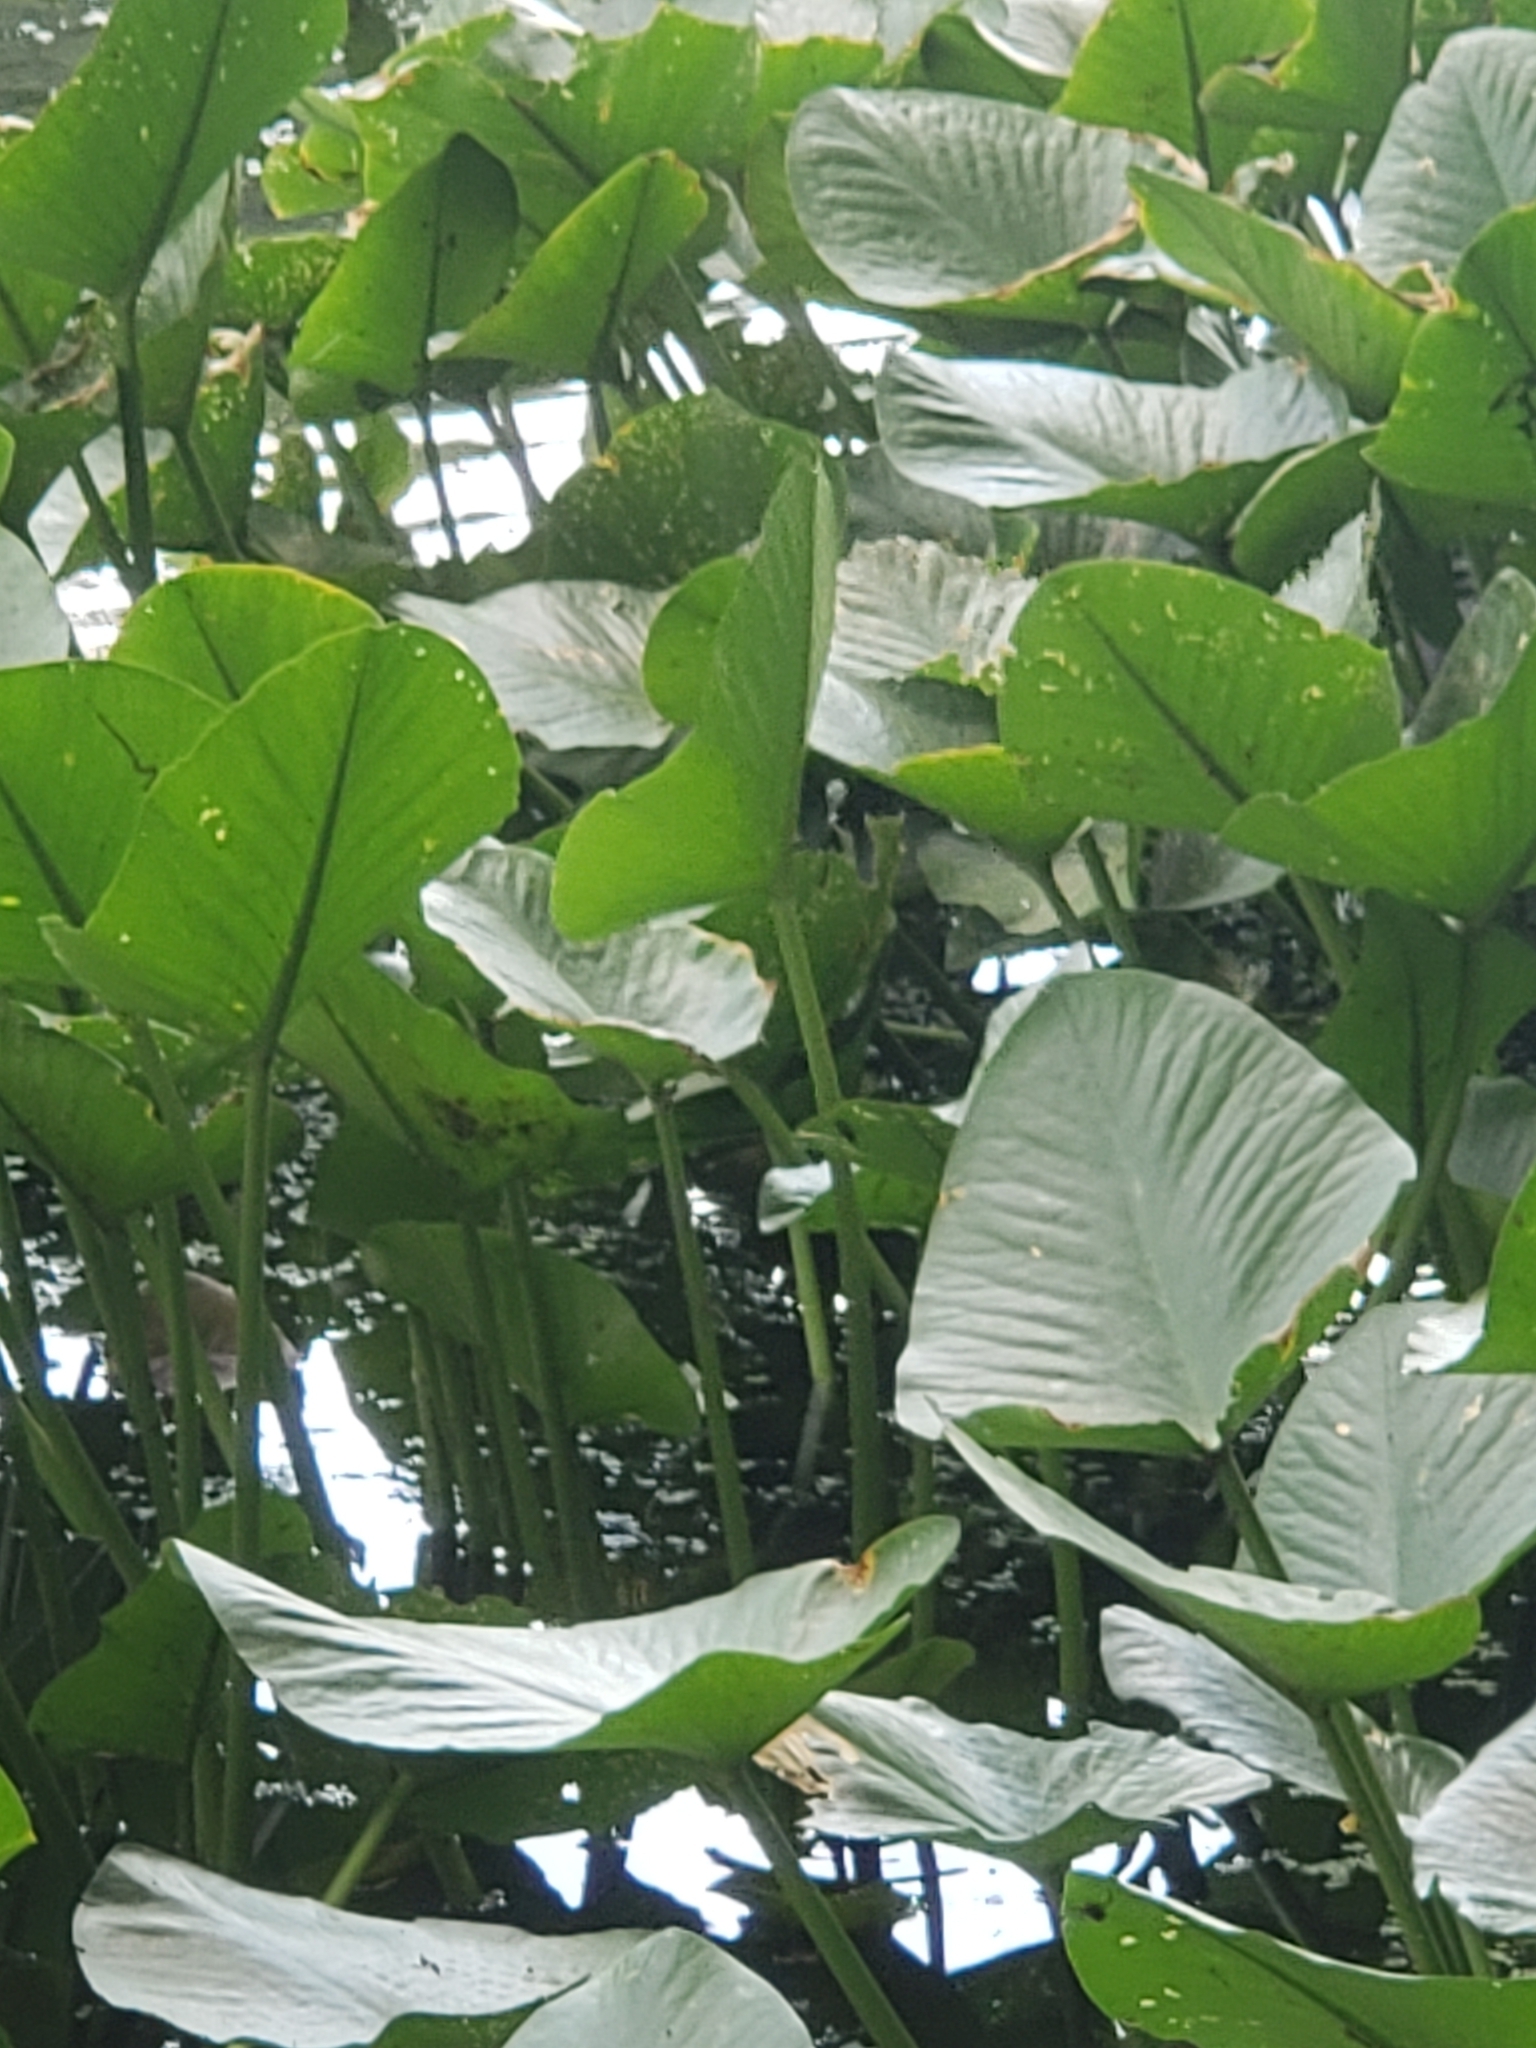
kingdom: Animalia
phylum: Chordata
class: Aves
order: Passeriformes
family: Parulidae
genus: Protonotaria
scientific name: Protonotaria citrea
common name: Prothonotary warbler
